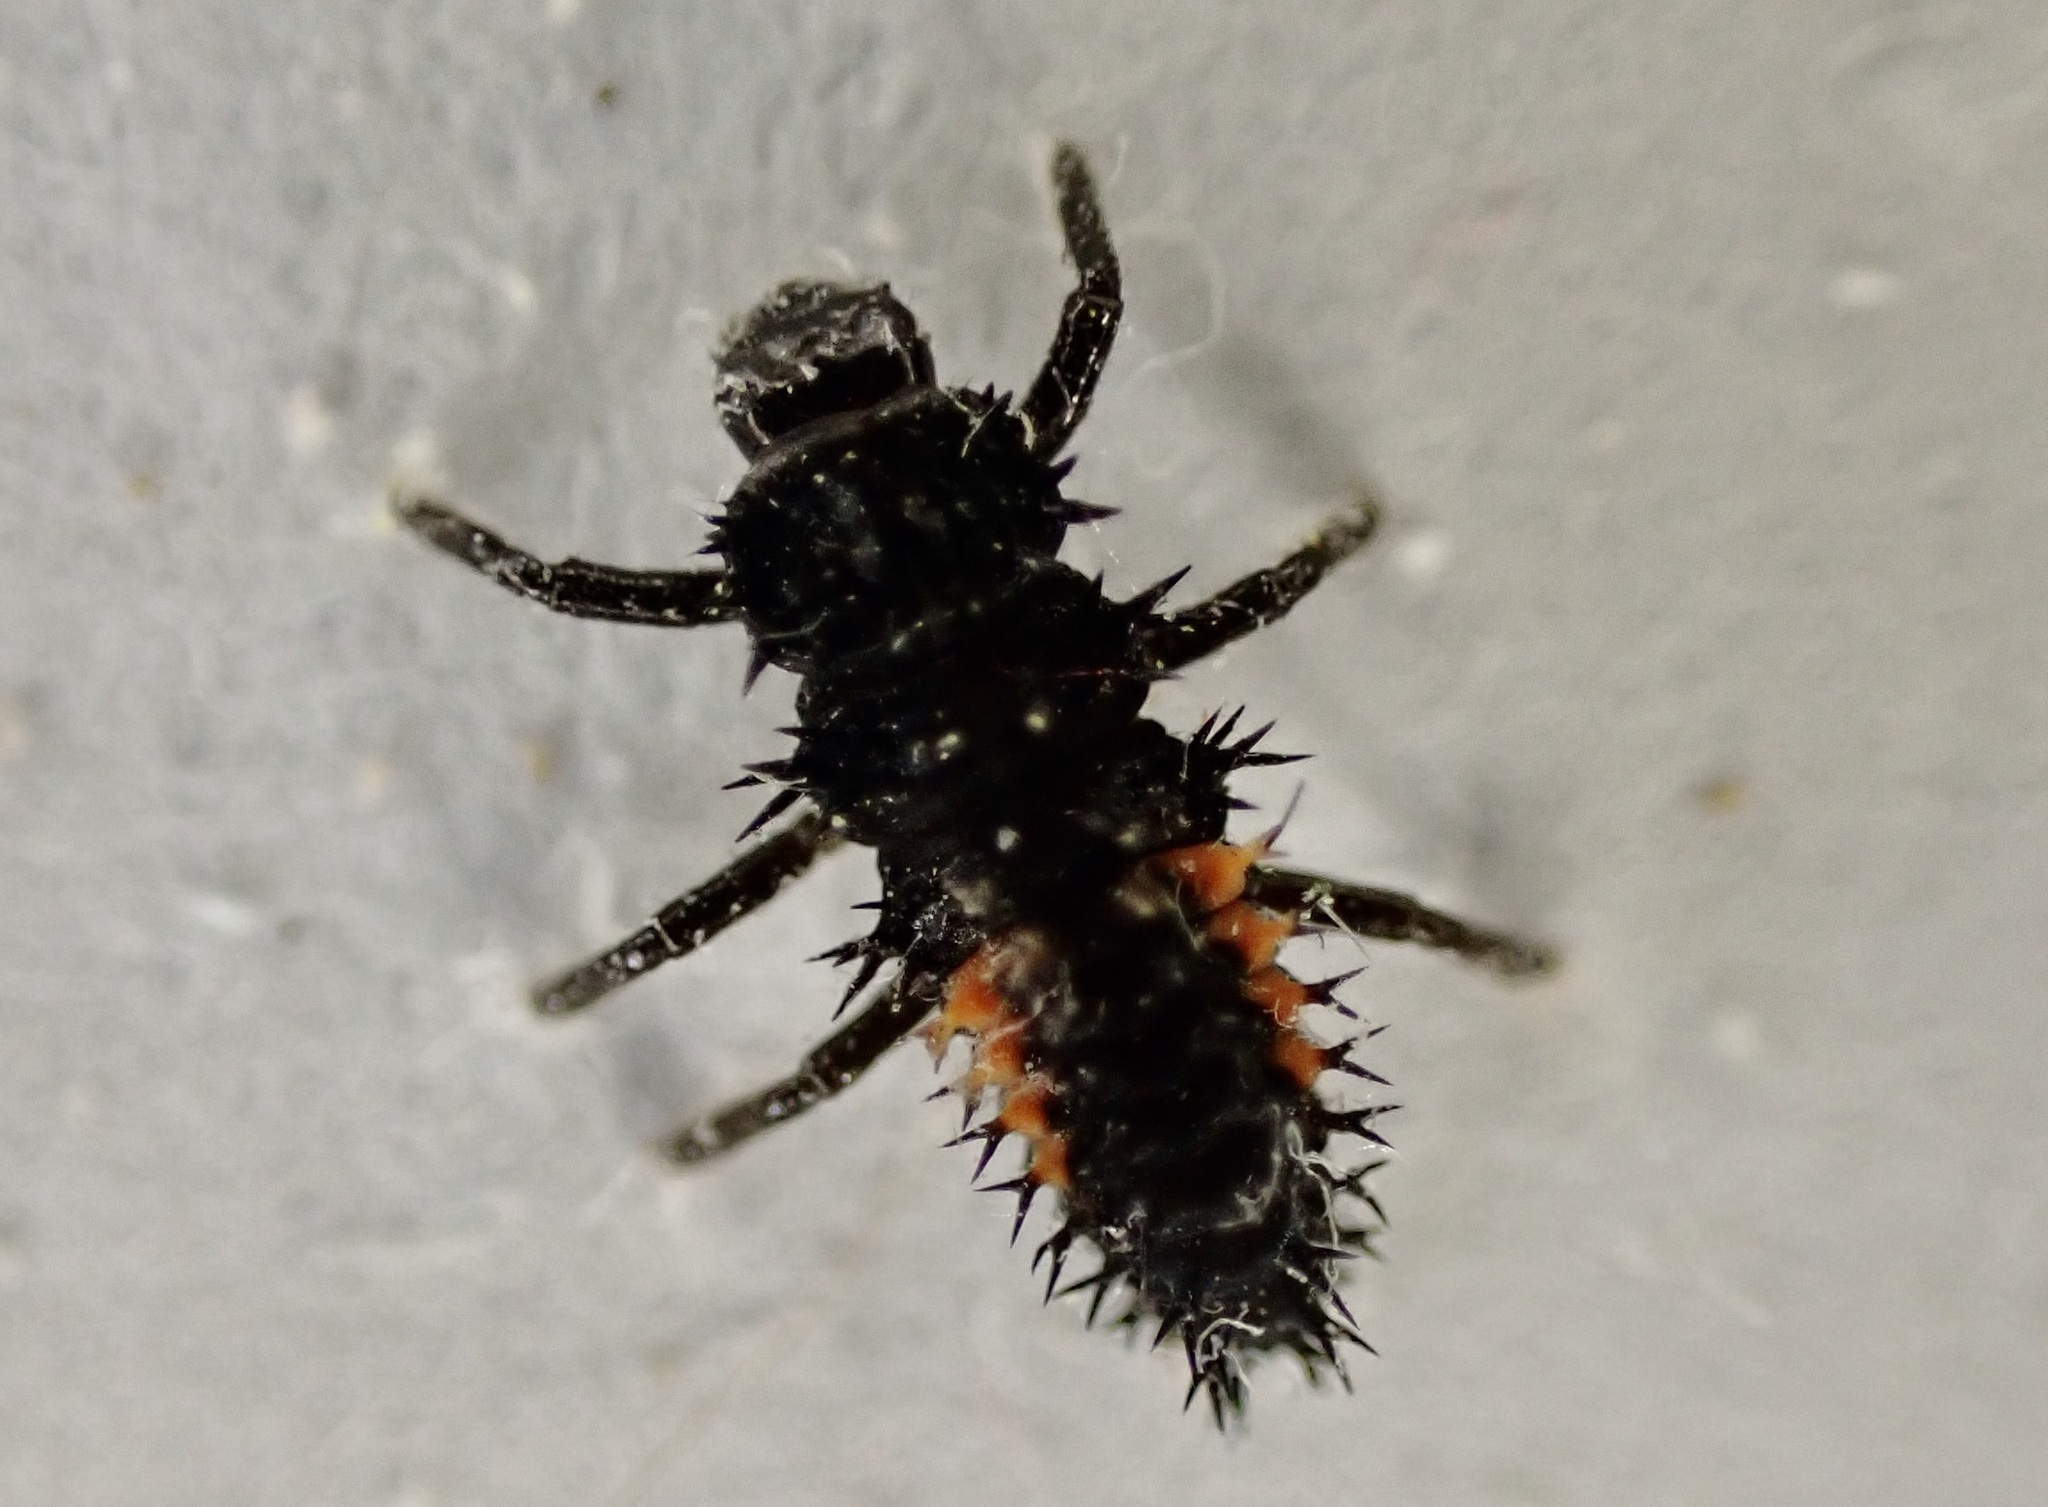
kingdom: Animalia
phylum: Arthropoda
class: Insecta
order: Coleoptera
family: Coccinellidae
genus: Harmonia
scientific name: Harmonia axyridis
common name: Harlequin ladybird
